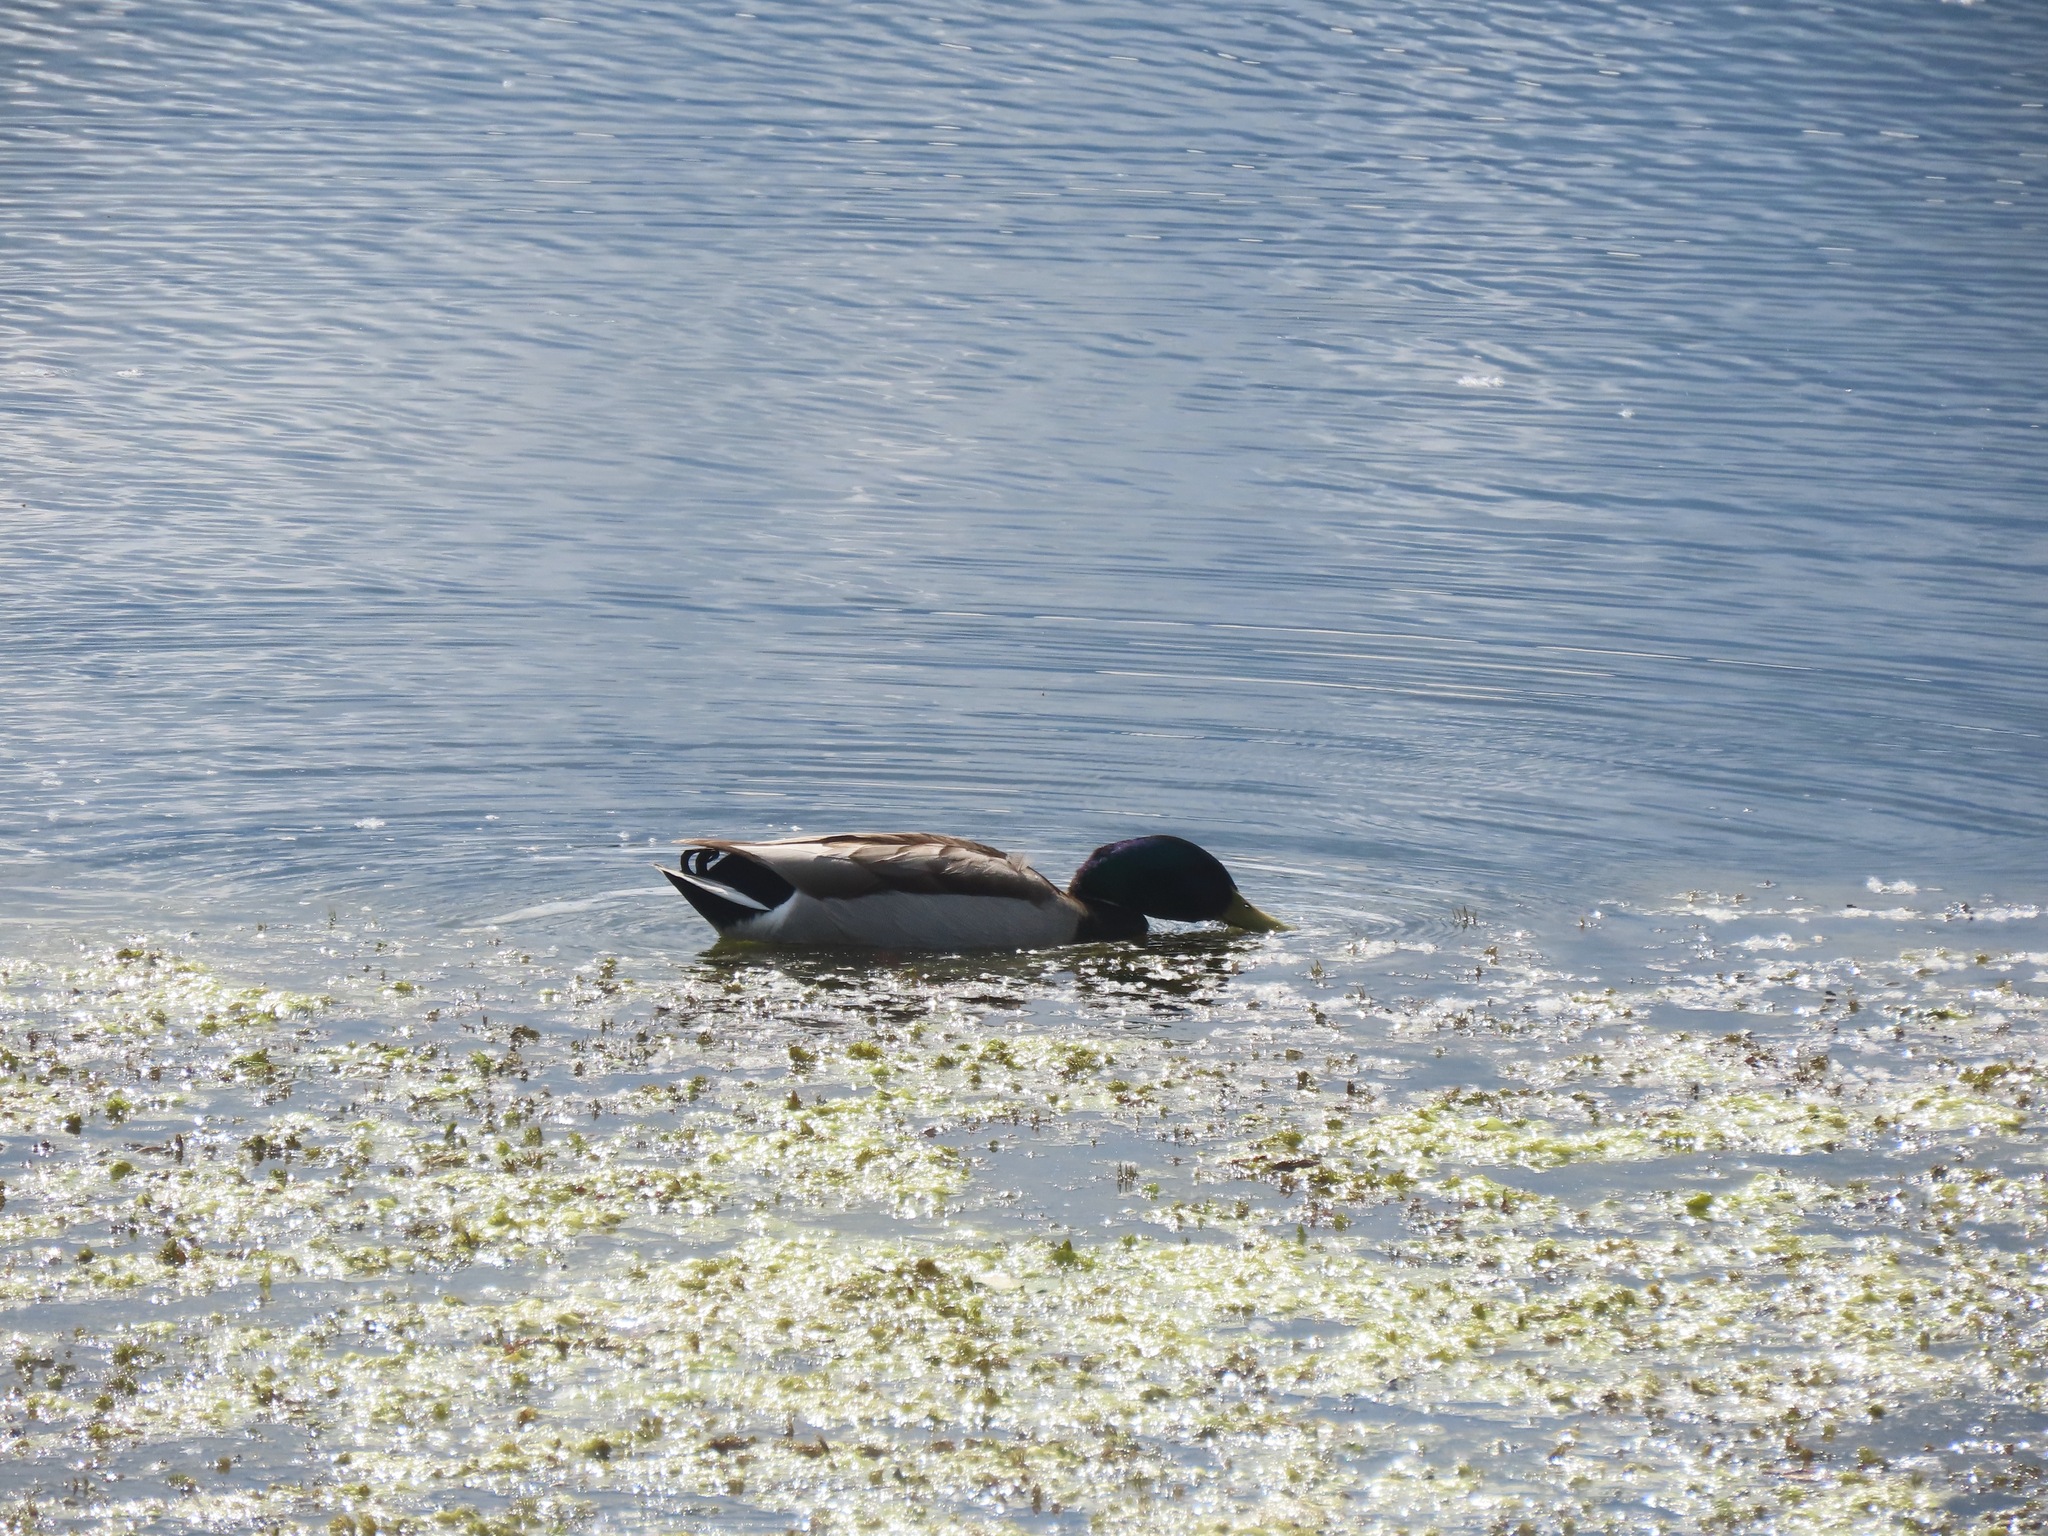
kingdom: Animalia
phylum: Chordata
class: Aves
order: Anseriformes
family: Anatidae
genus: Anas
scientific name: Anas platyrhynchos
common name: Mallard
